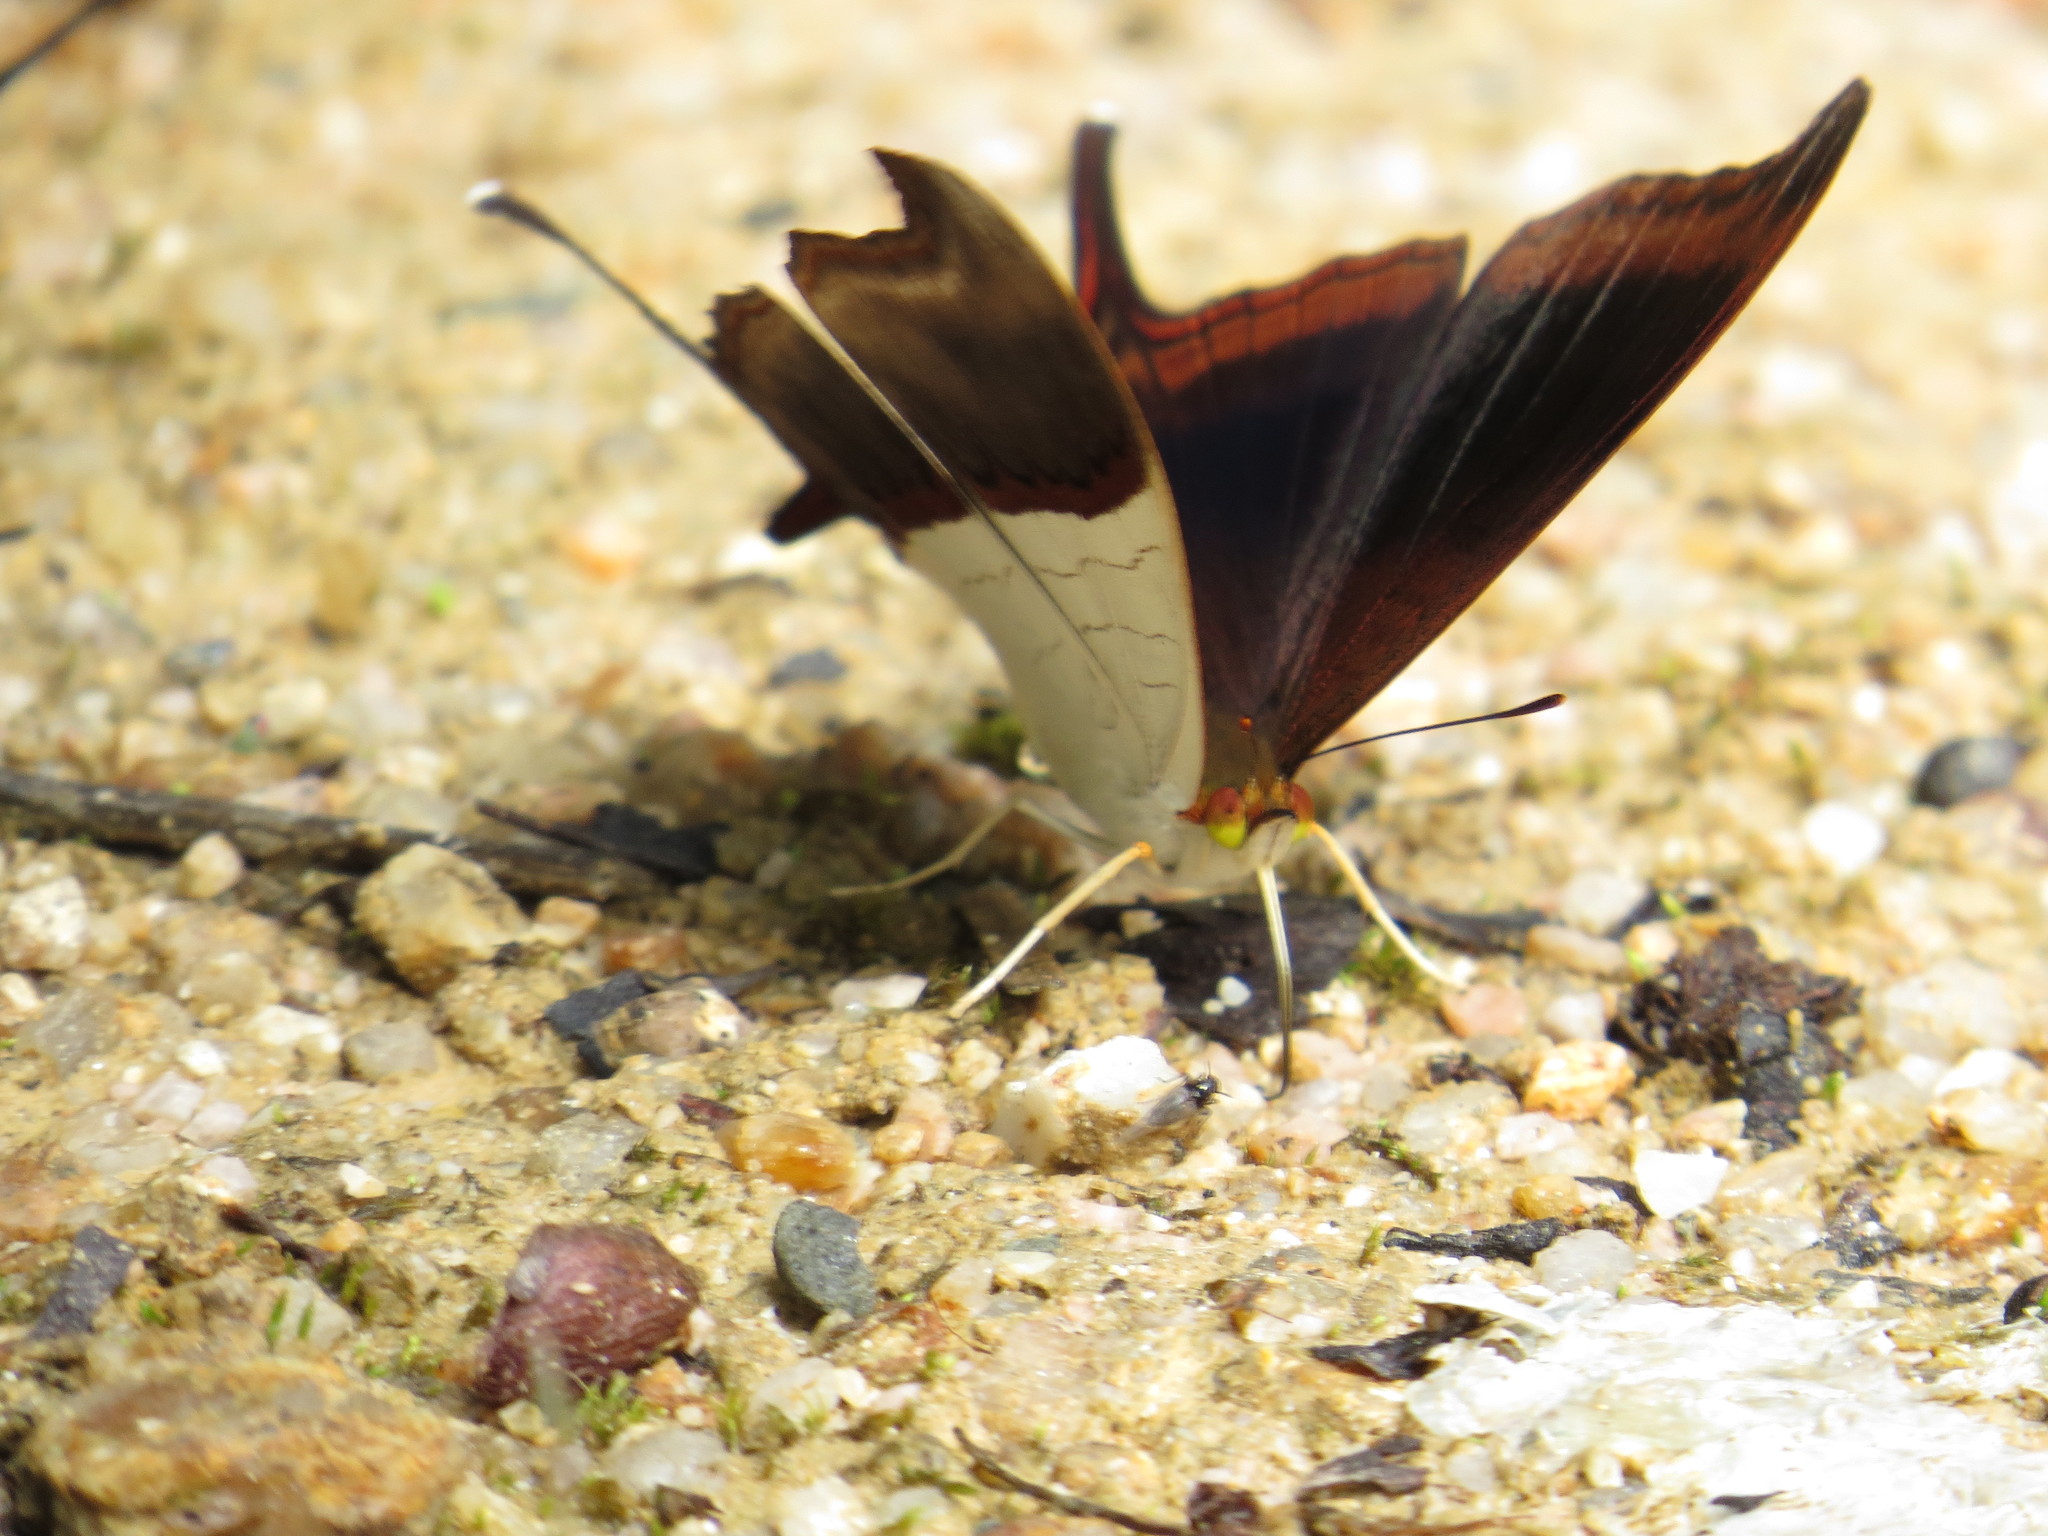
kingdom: Animalia
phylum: Arthropoda
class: Insecta
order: Lepidoptera
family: Nymphalidae
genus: Marpesia
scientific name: Marpesia zerynthia
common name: Waiter daggerwing
